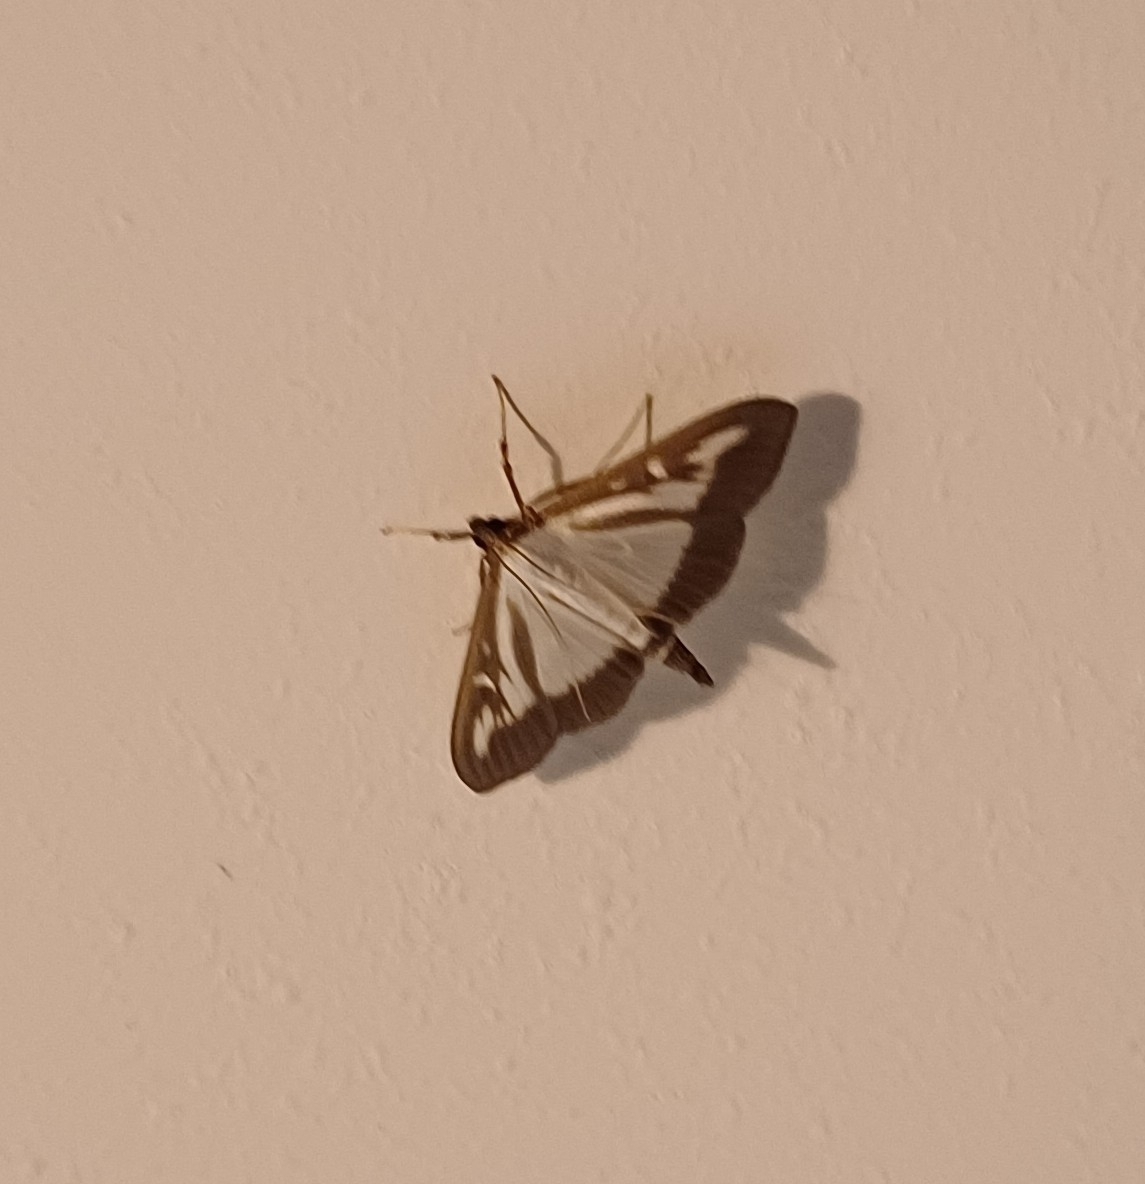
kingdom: Animalia
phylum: Arthropoda
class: Insecta
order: Lepidoptera
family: Crambidae
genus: Cydalima
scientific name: Cydalima perspectalis
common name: Box tree moth
